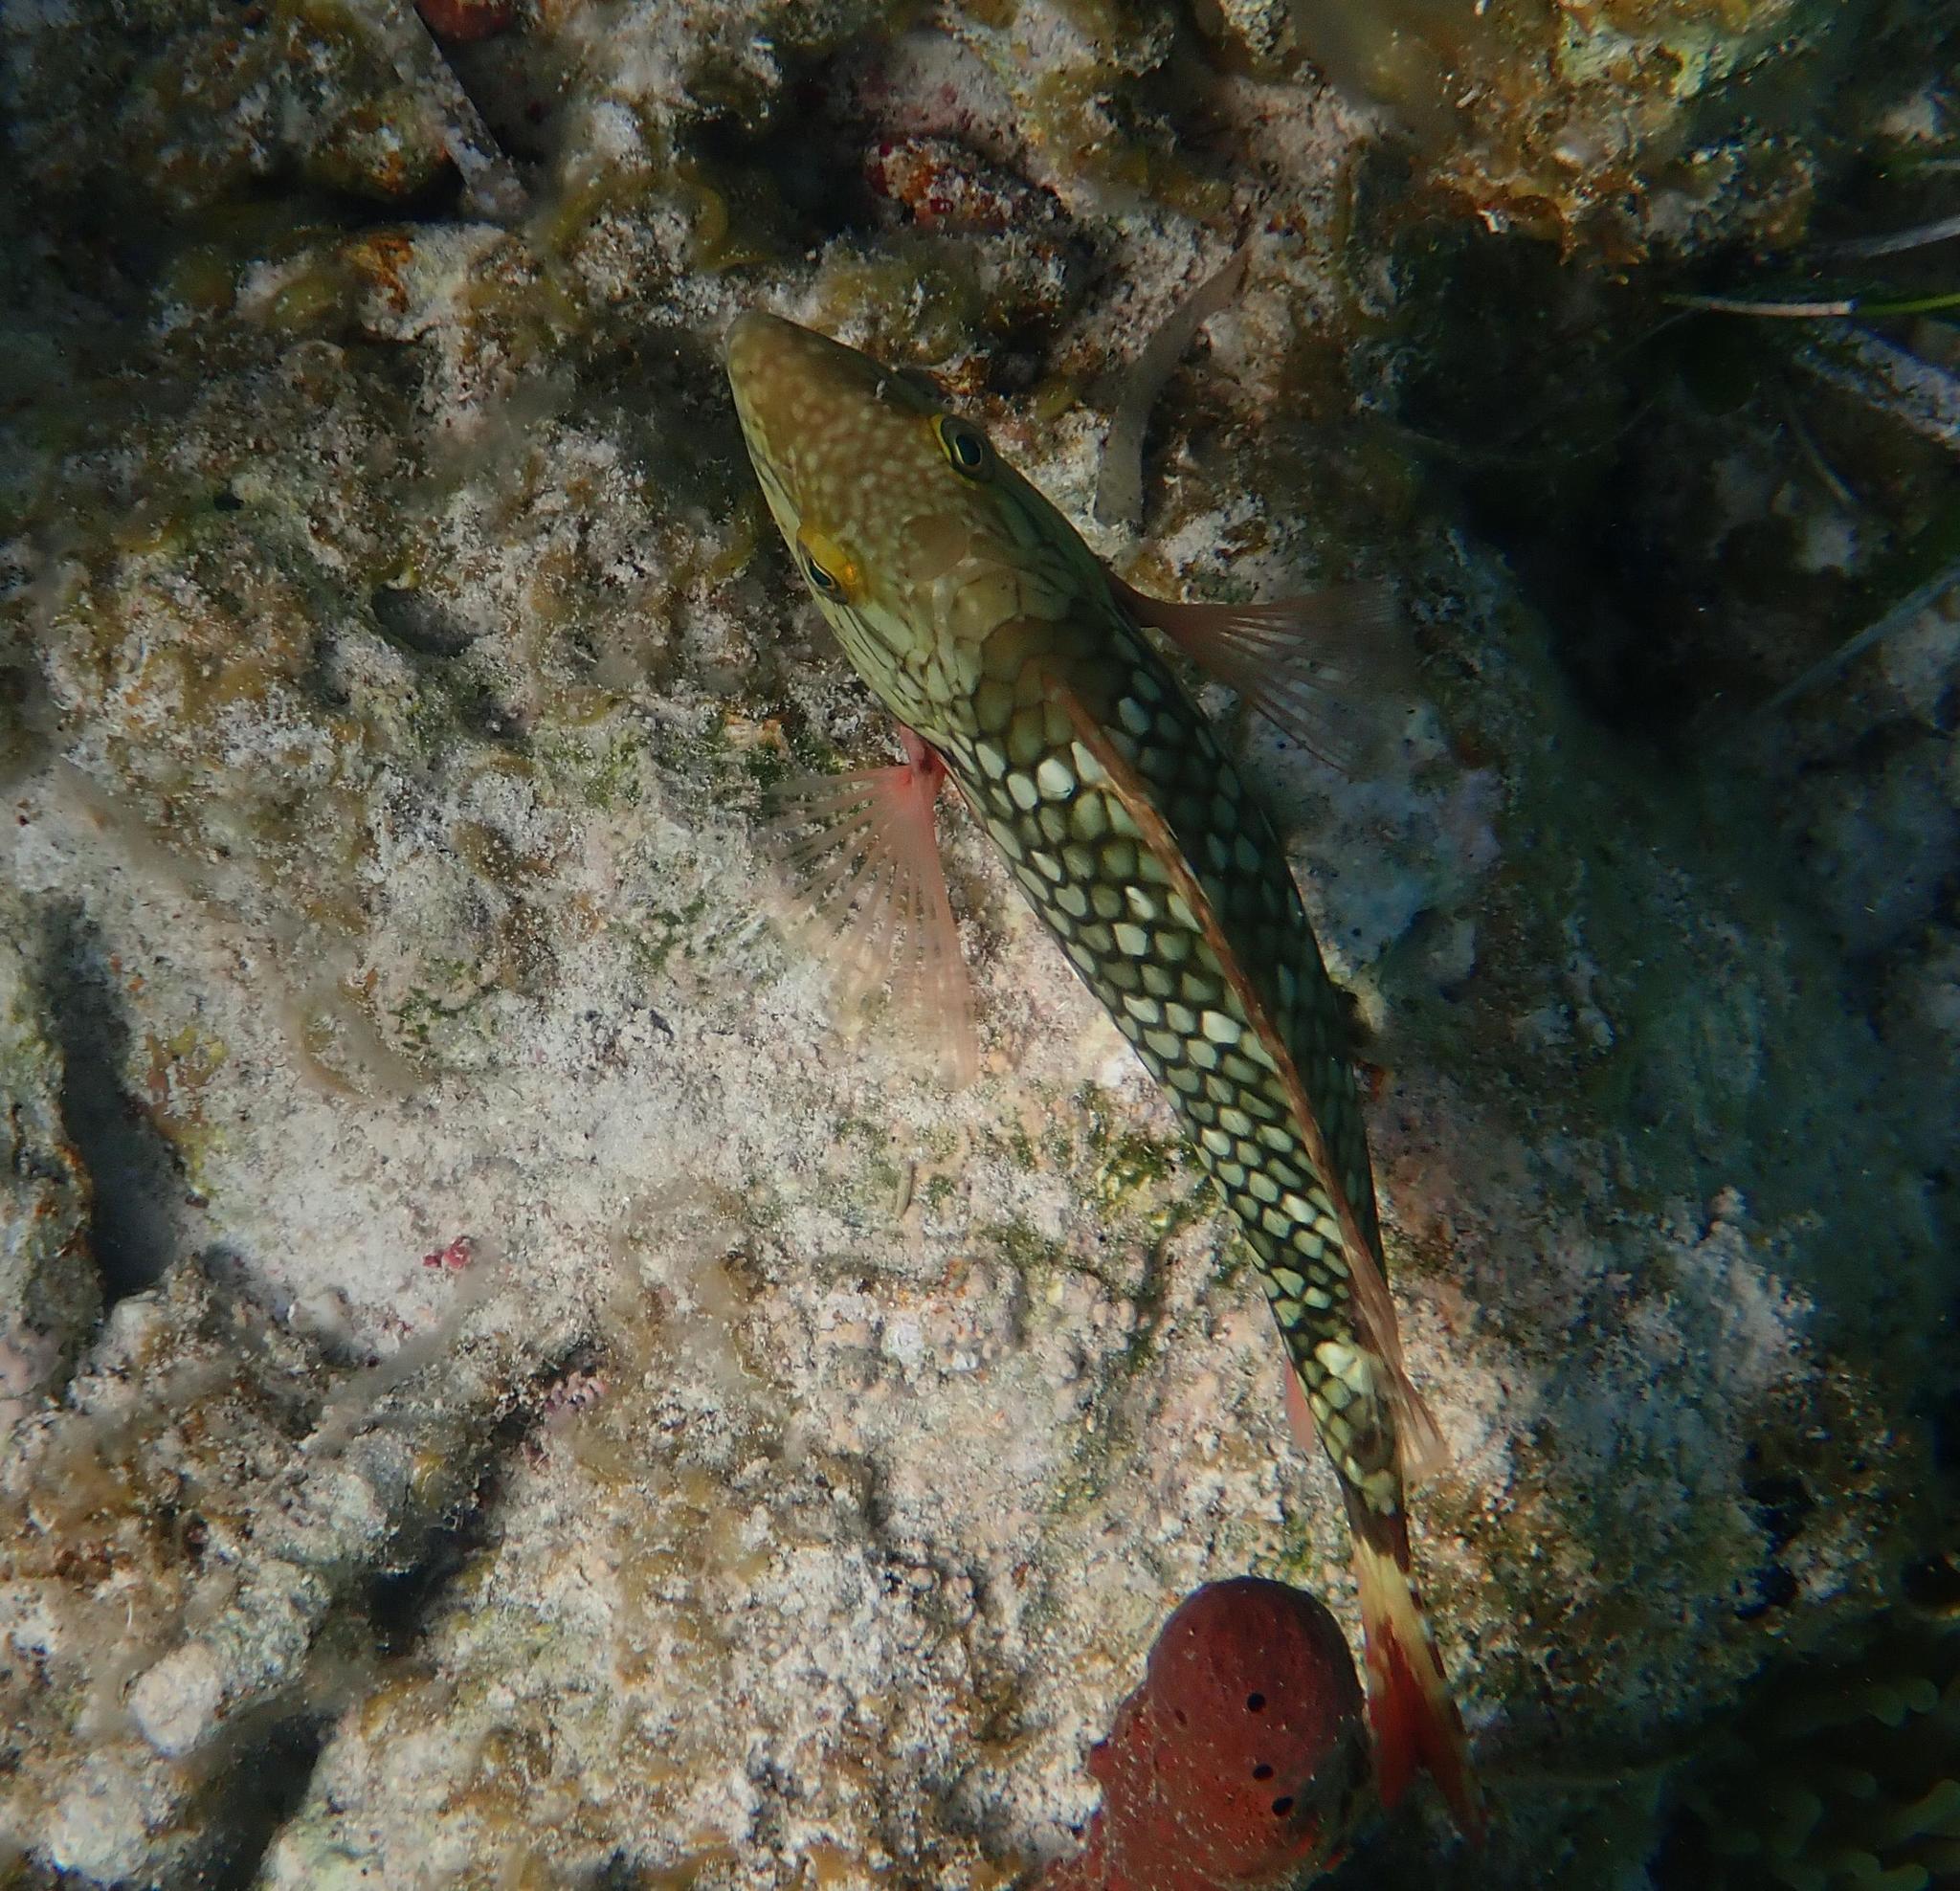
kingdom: Animalia
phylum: Chordata
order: Perciformes
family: Scaridae
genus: Sparisoma
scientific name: Sparisoma viride
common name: Stoplight parrotfish
